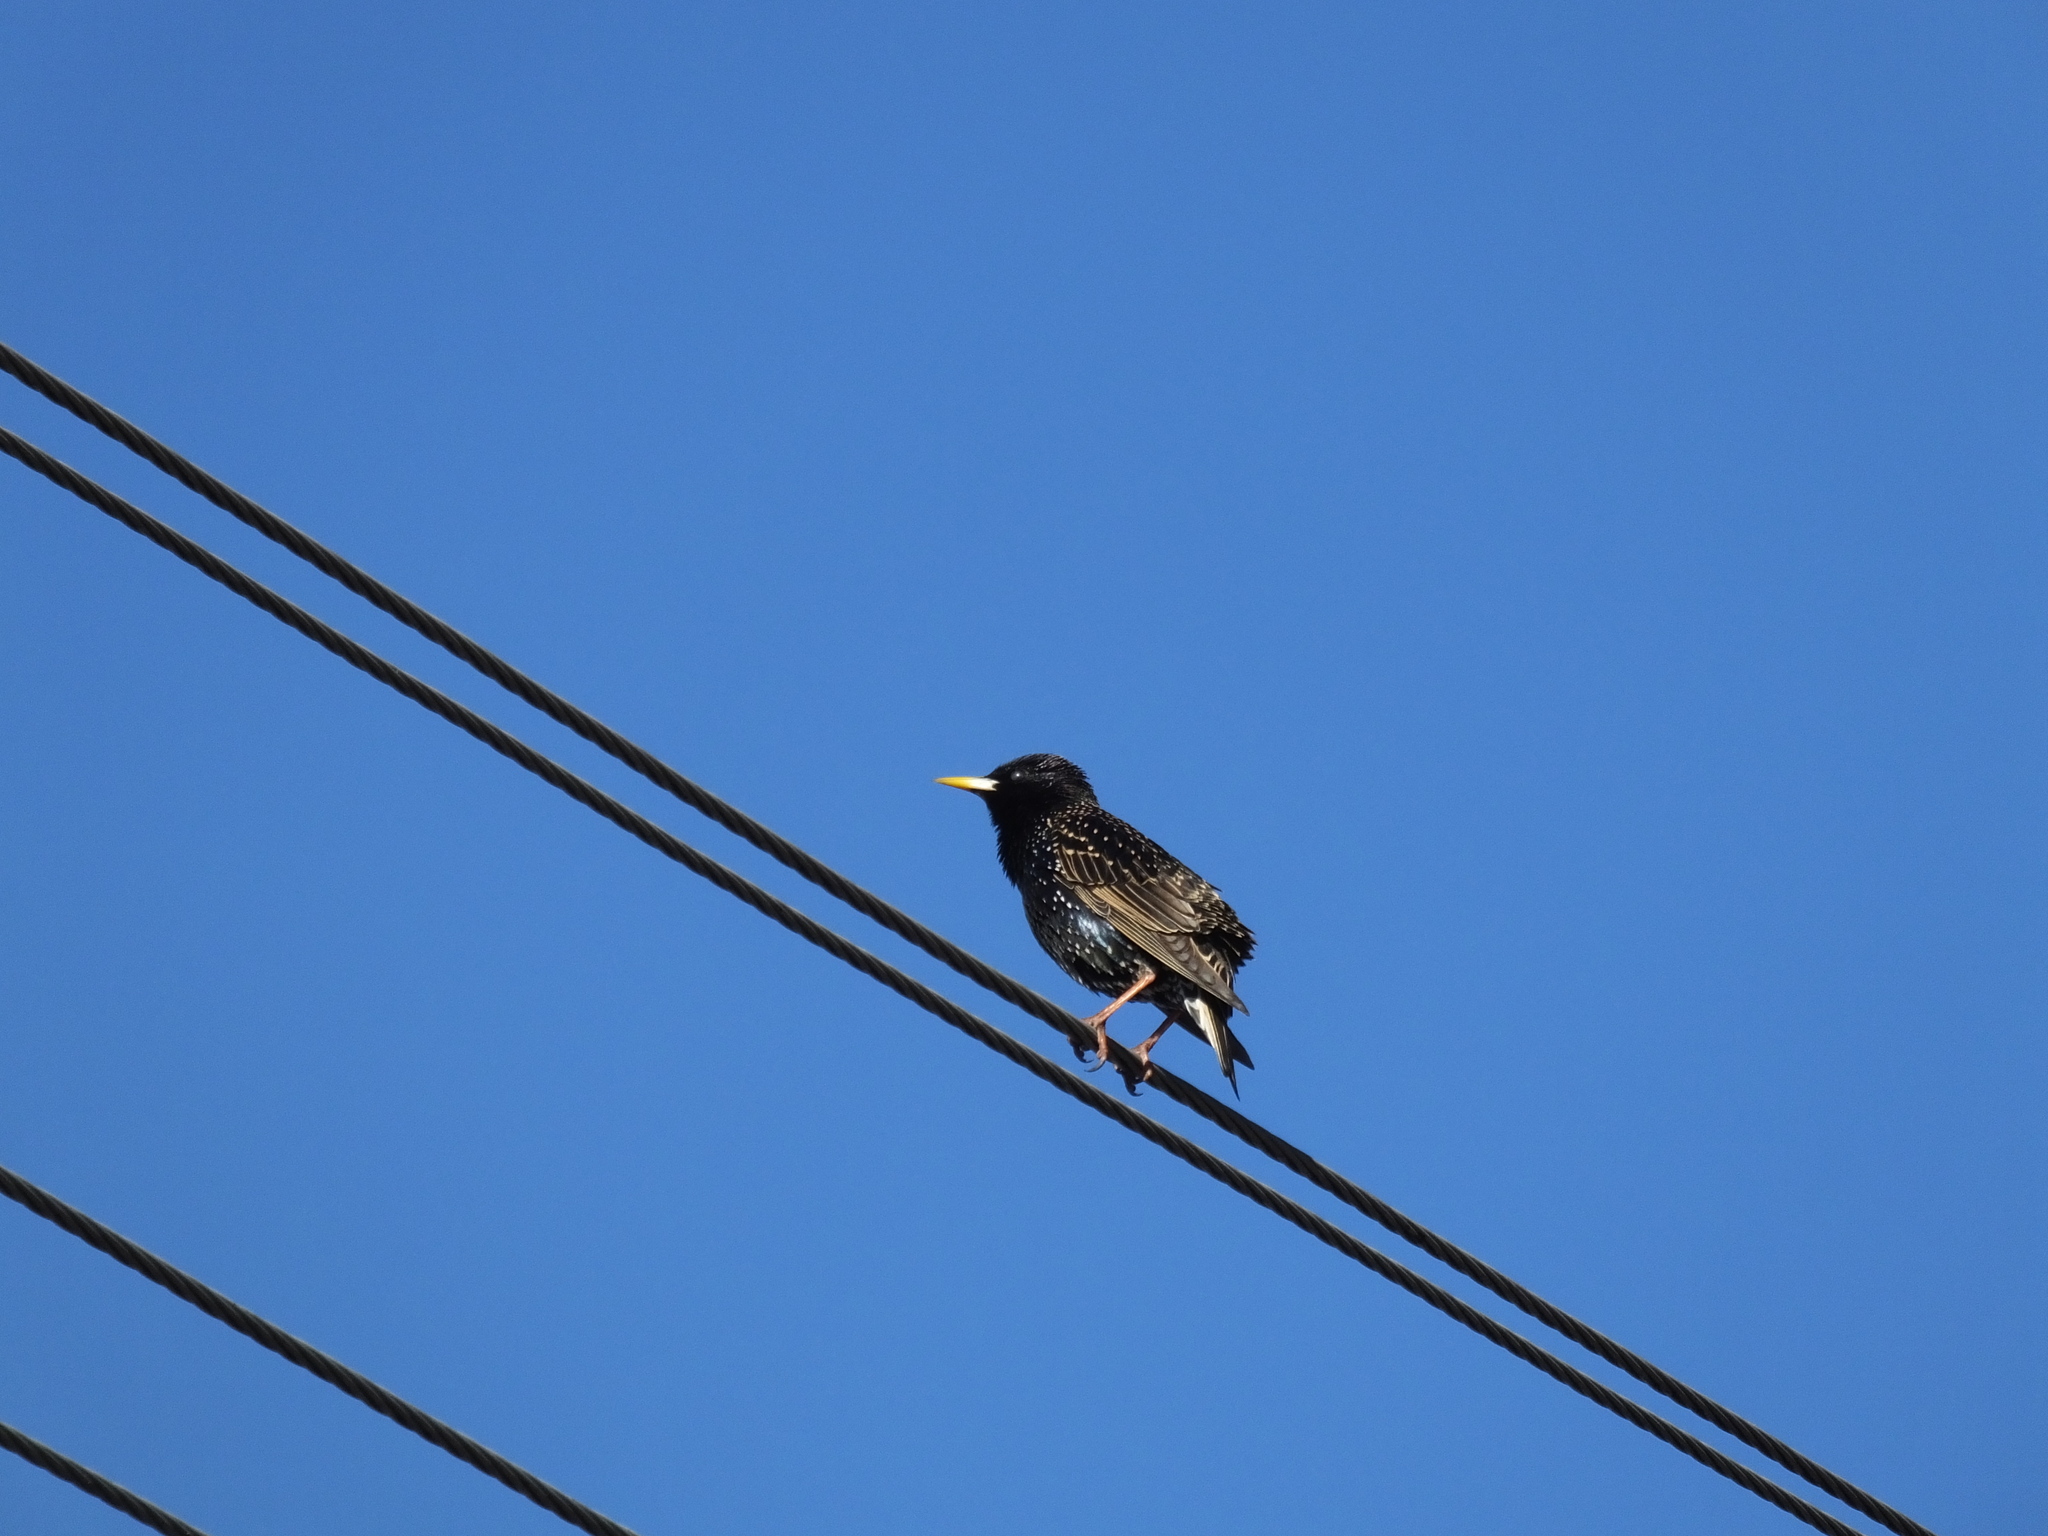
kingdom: Animalia
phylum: Chordata
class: Aves
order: Passeriformes
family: Sturnidae
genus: Sturnus
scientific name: Sturnus vulgaris
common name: Common starling
